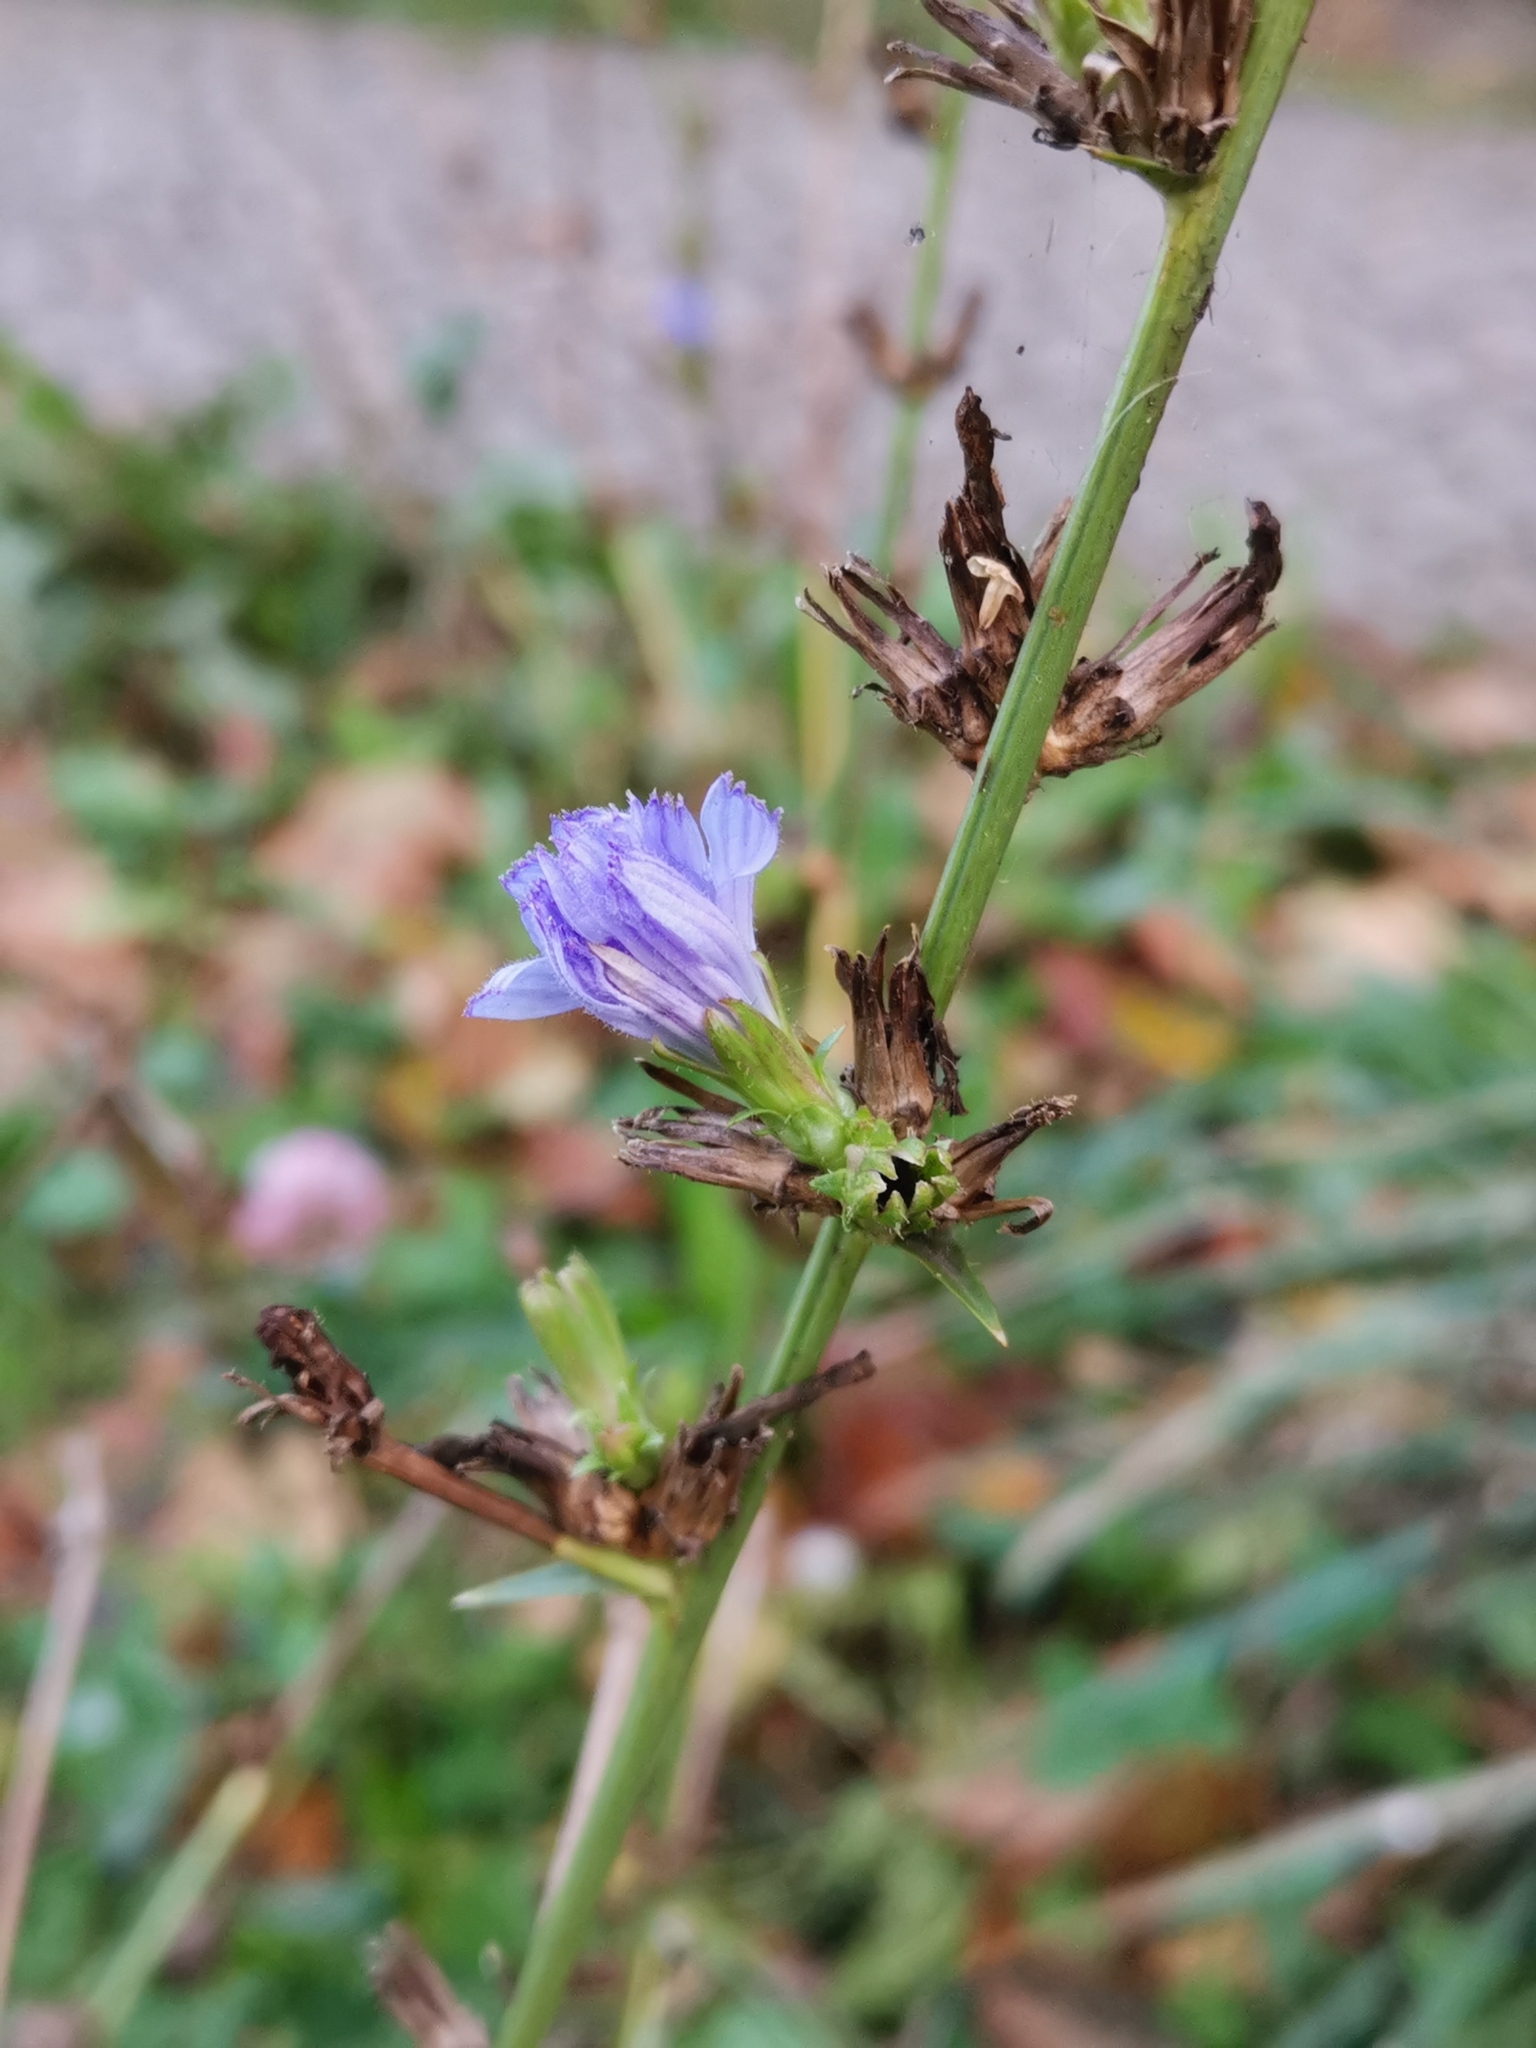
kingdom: Plantae
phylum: Tracheophyta
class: Magnoliopsida
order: Asterales
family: Asteraceae
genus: Cichorium
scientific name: Cichorium intybus
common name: Chicory
